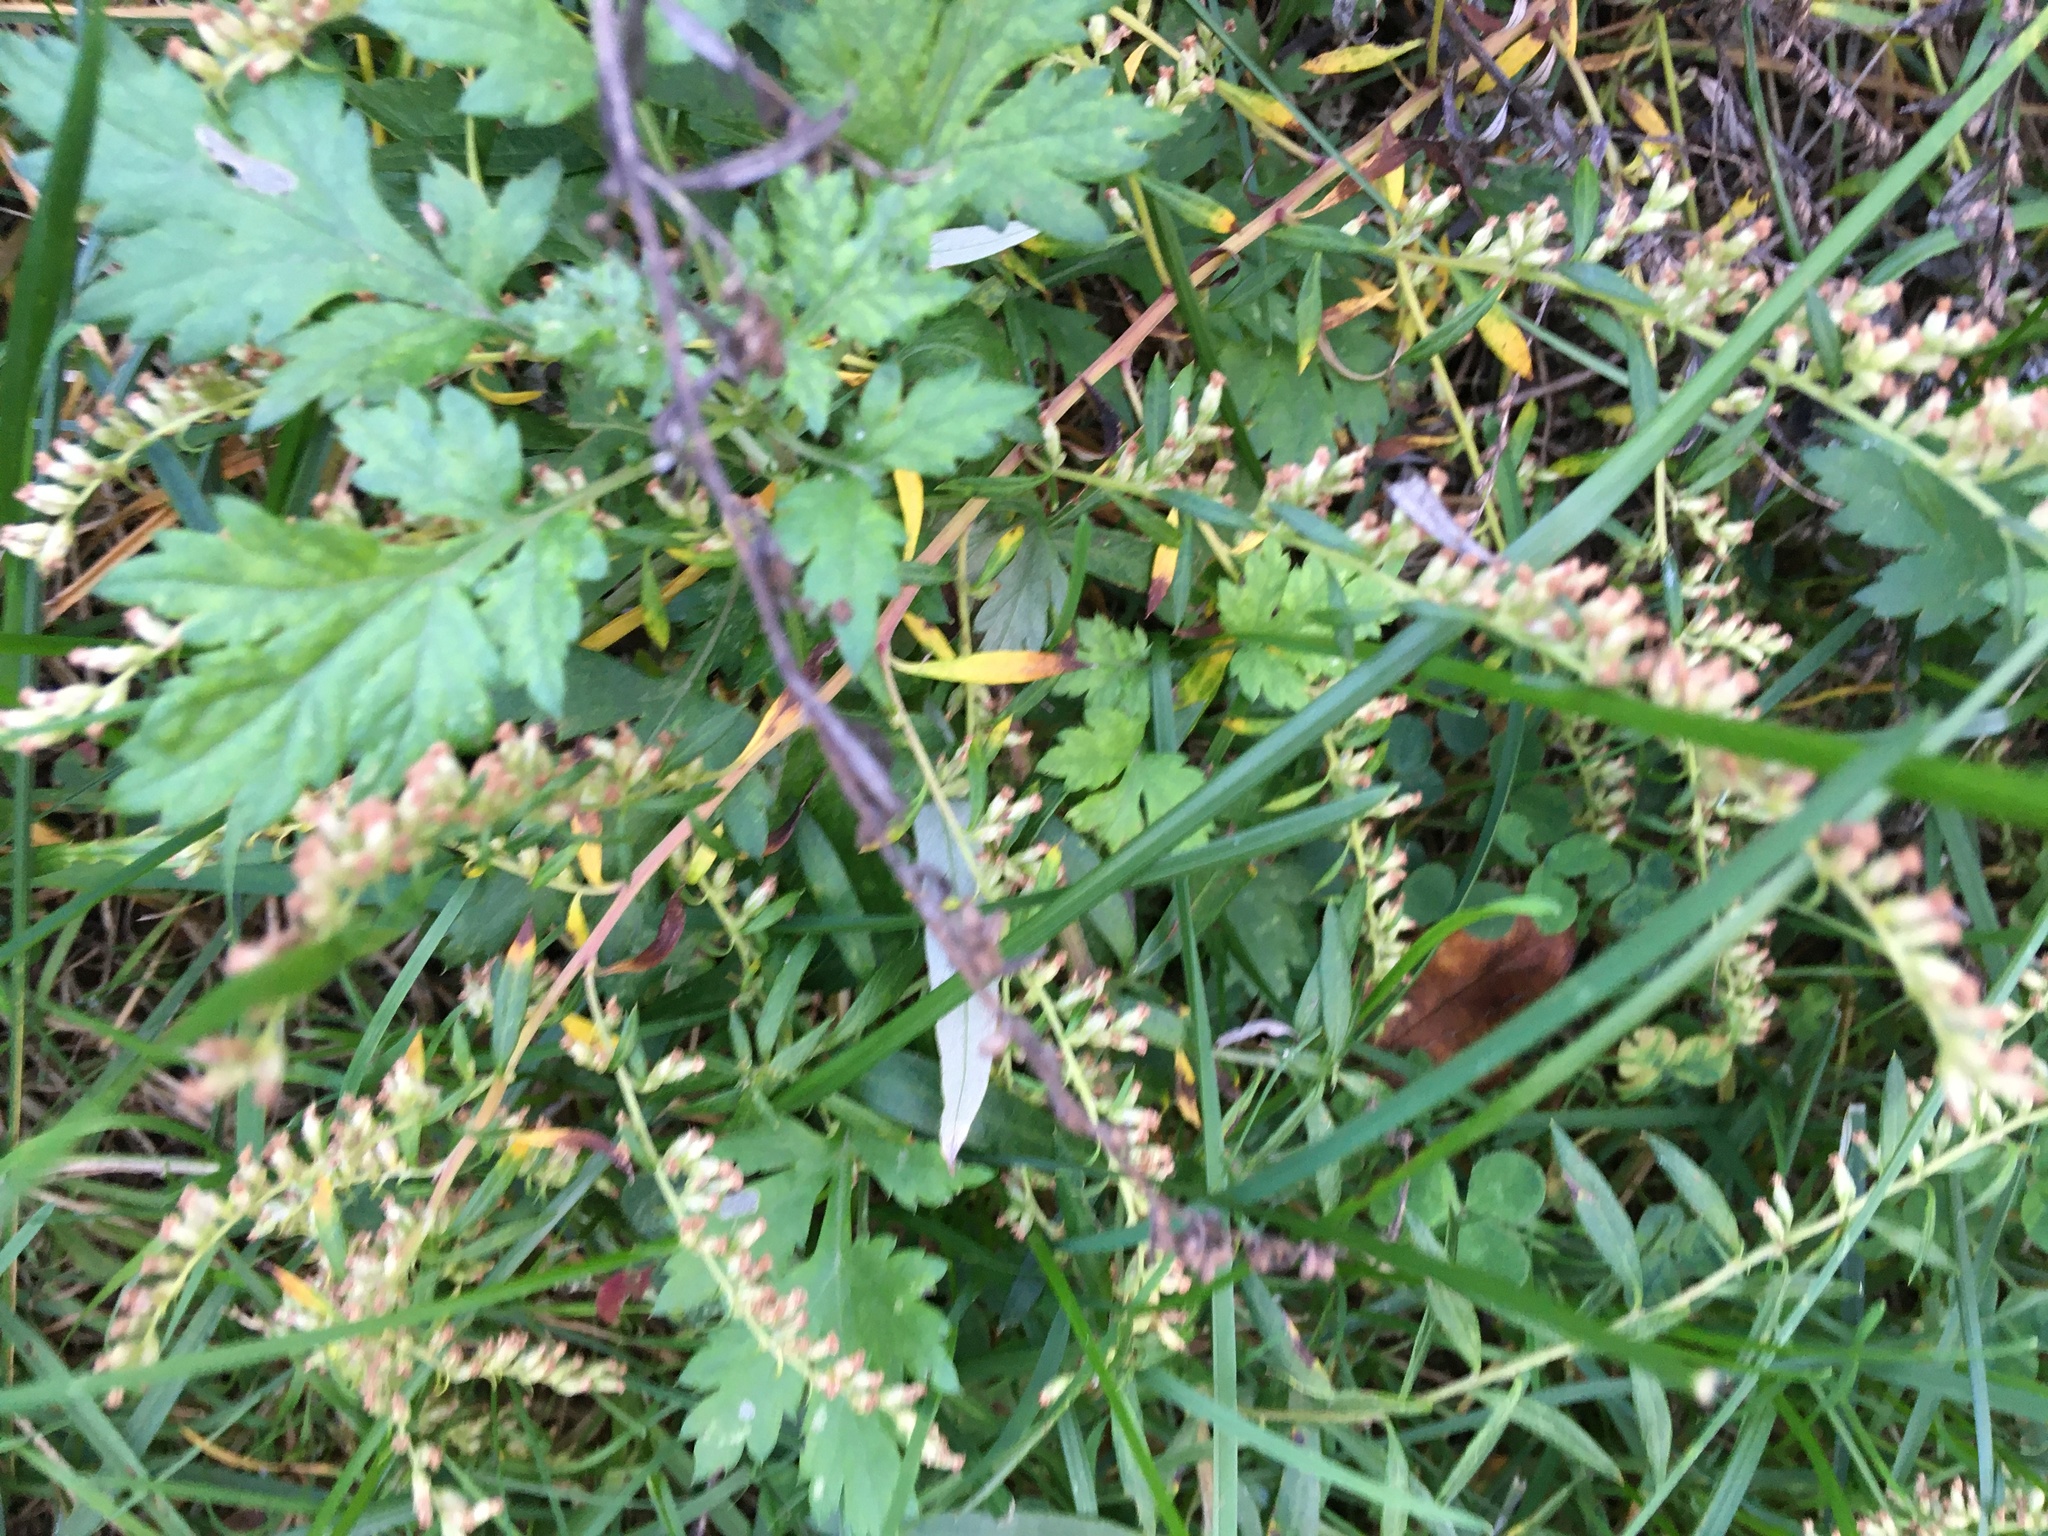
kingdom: Plantae
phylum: Tracheophyta
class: Magnoliopsida
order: Asterales
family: Asteraceae
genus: Artemisia
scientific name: Artemisia vulgaris
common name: Mugwort
